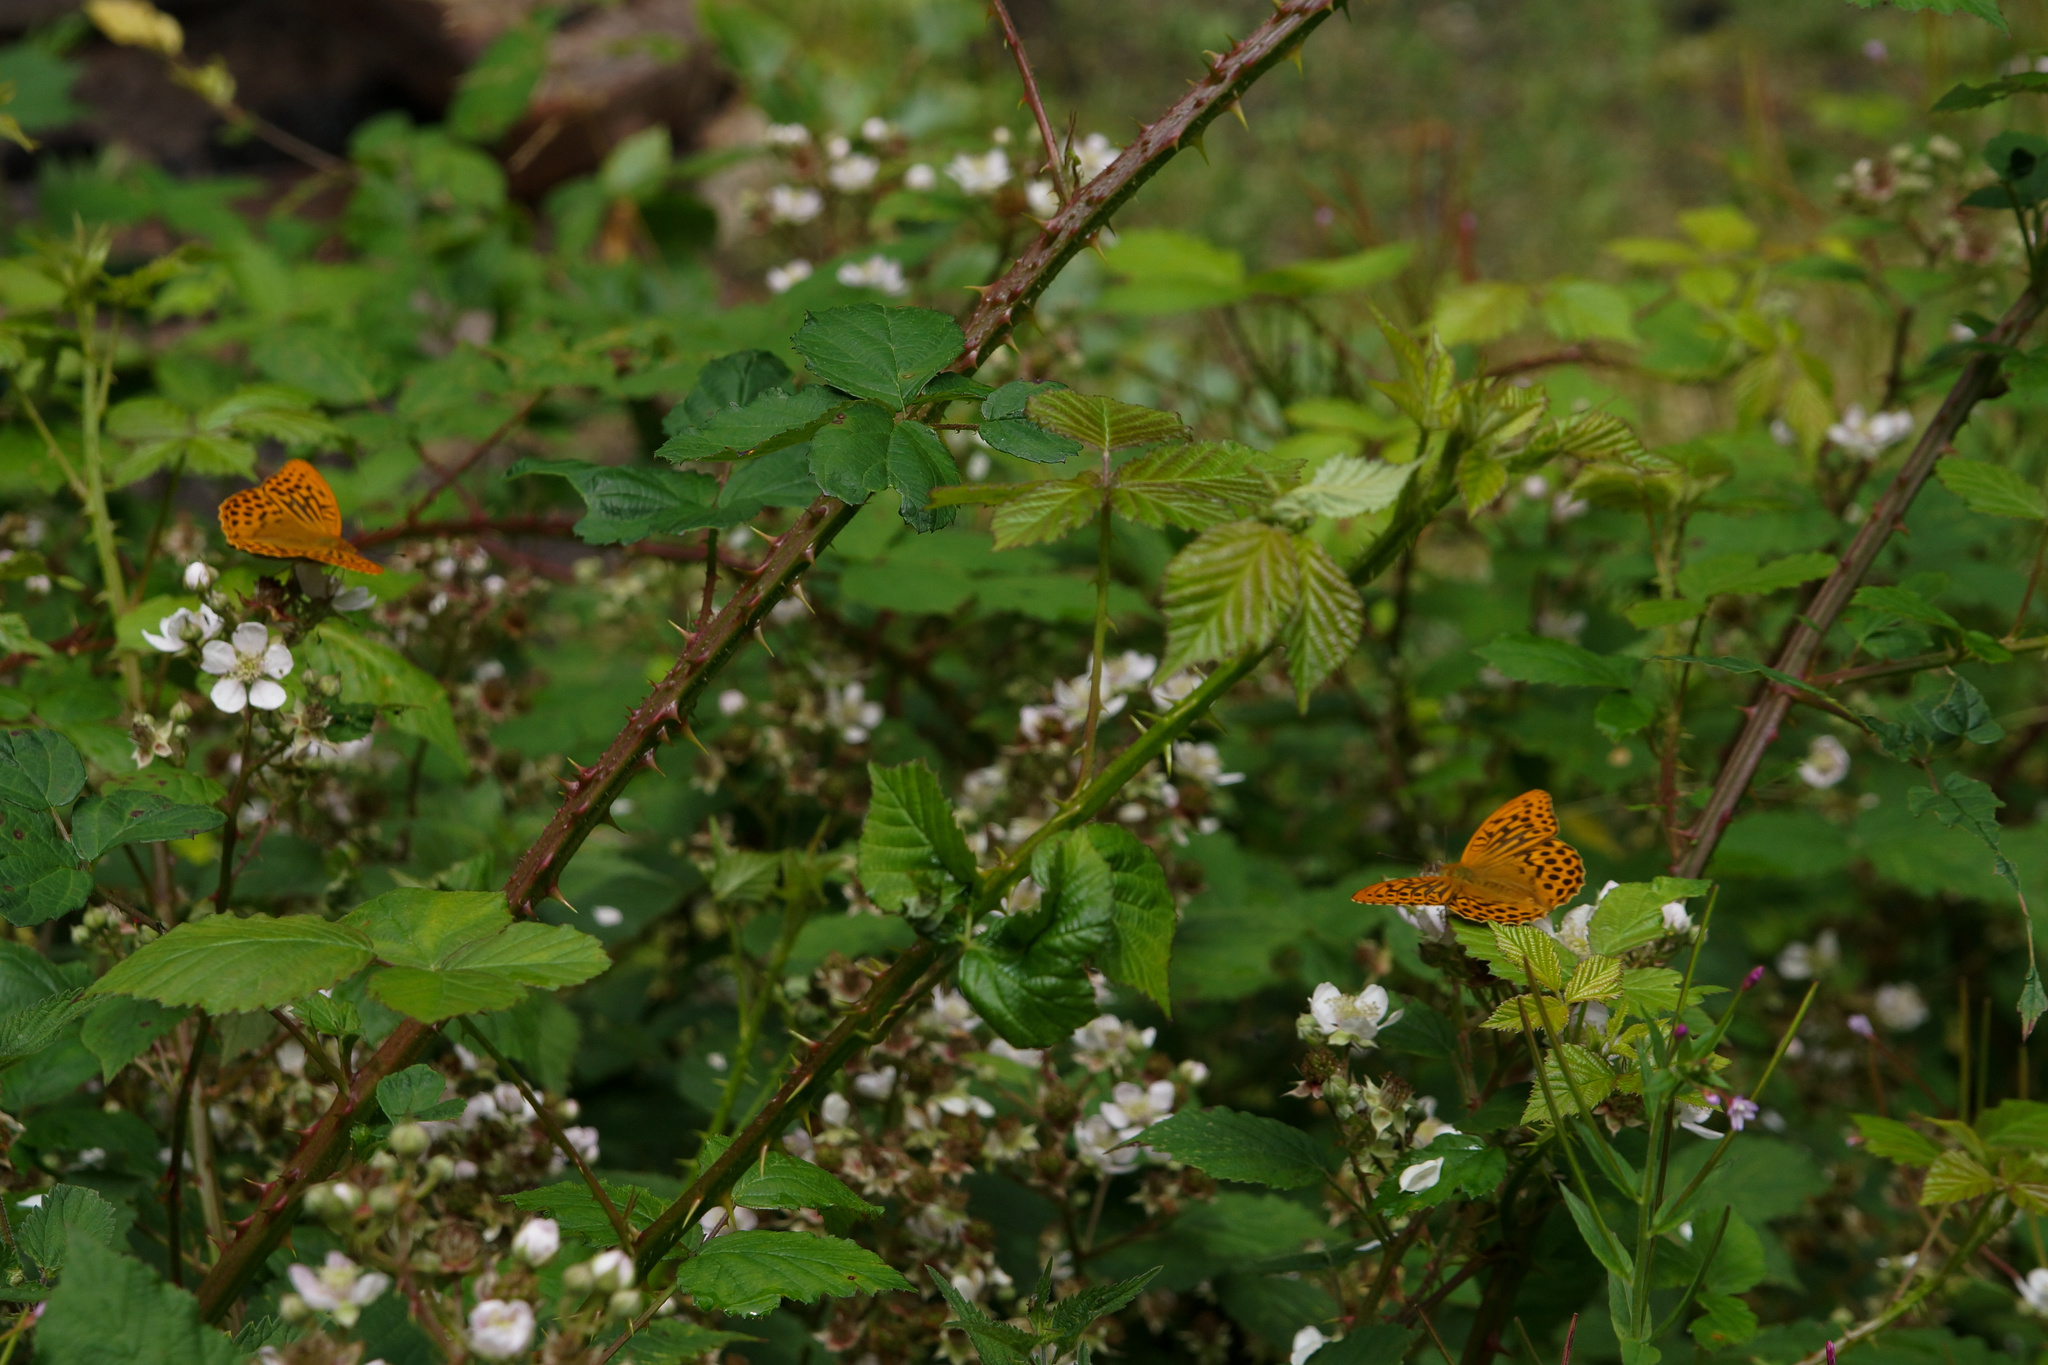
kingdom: Animalia
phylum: Arthropoda
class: Insecta
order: Lepidoptera
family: Nymphalidae
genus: Argynnis
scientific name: Argynnis paphia
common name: Silver-washed fritillary
